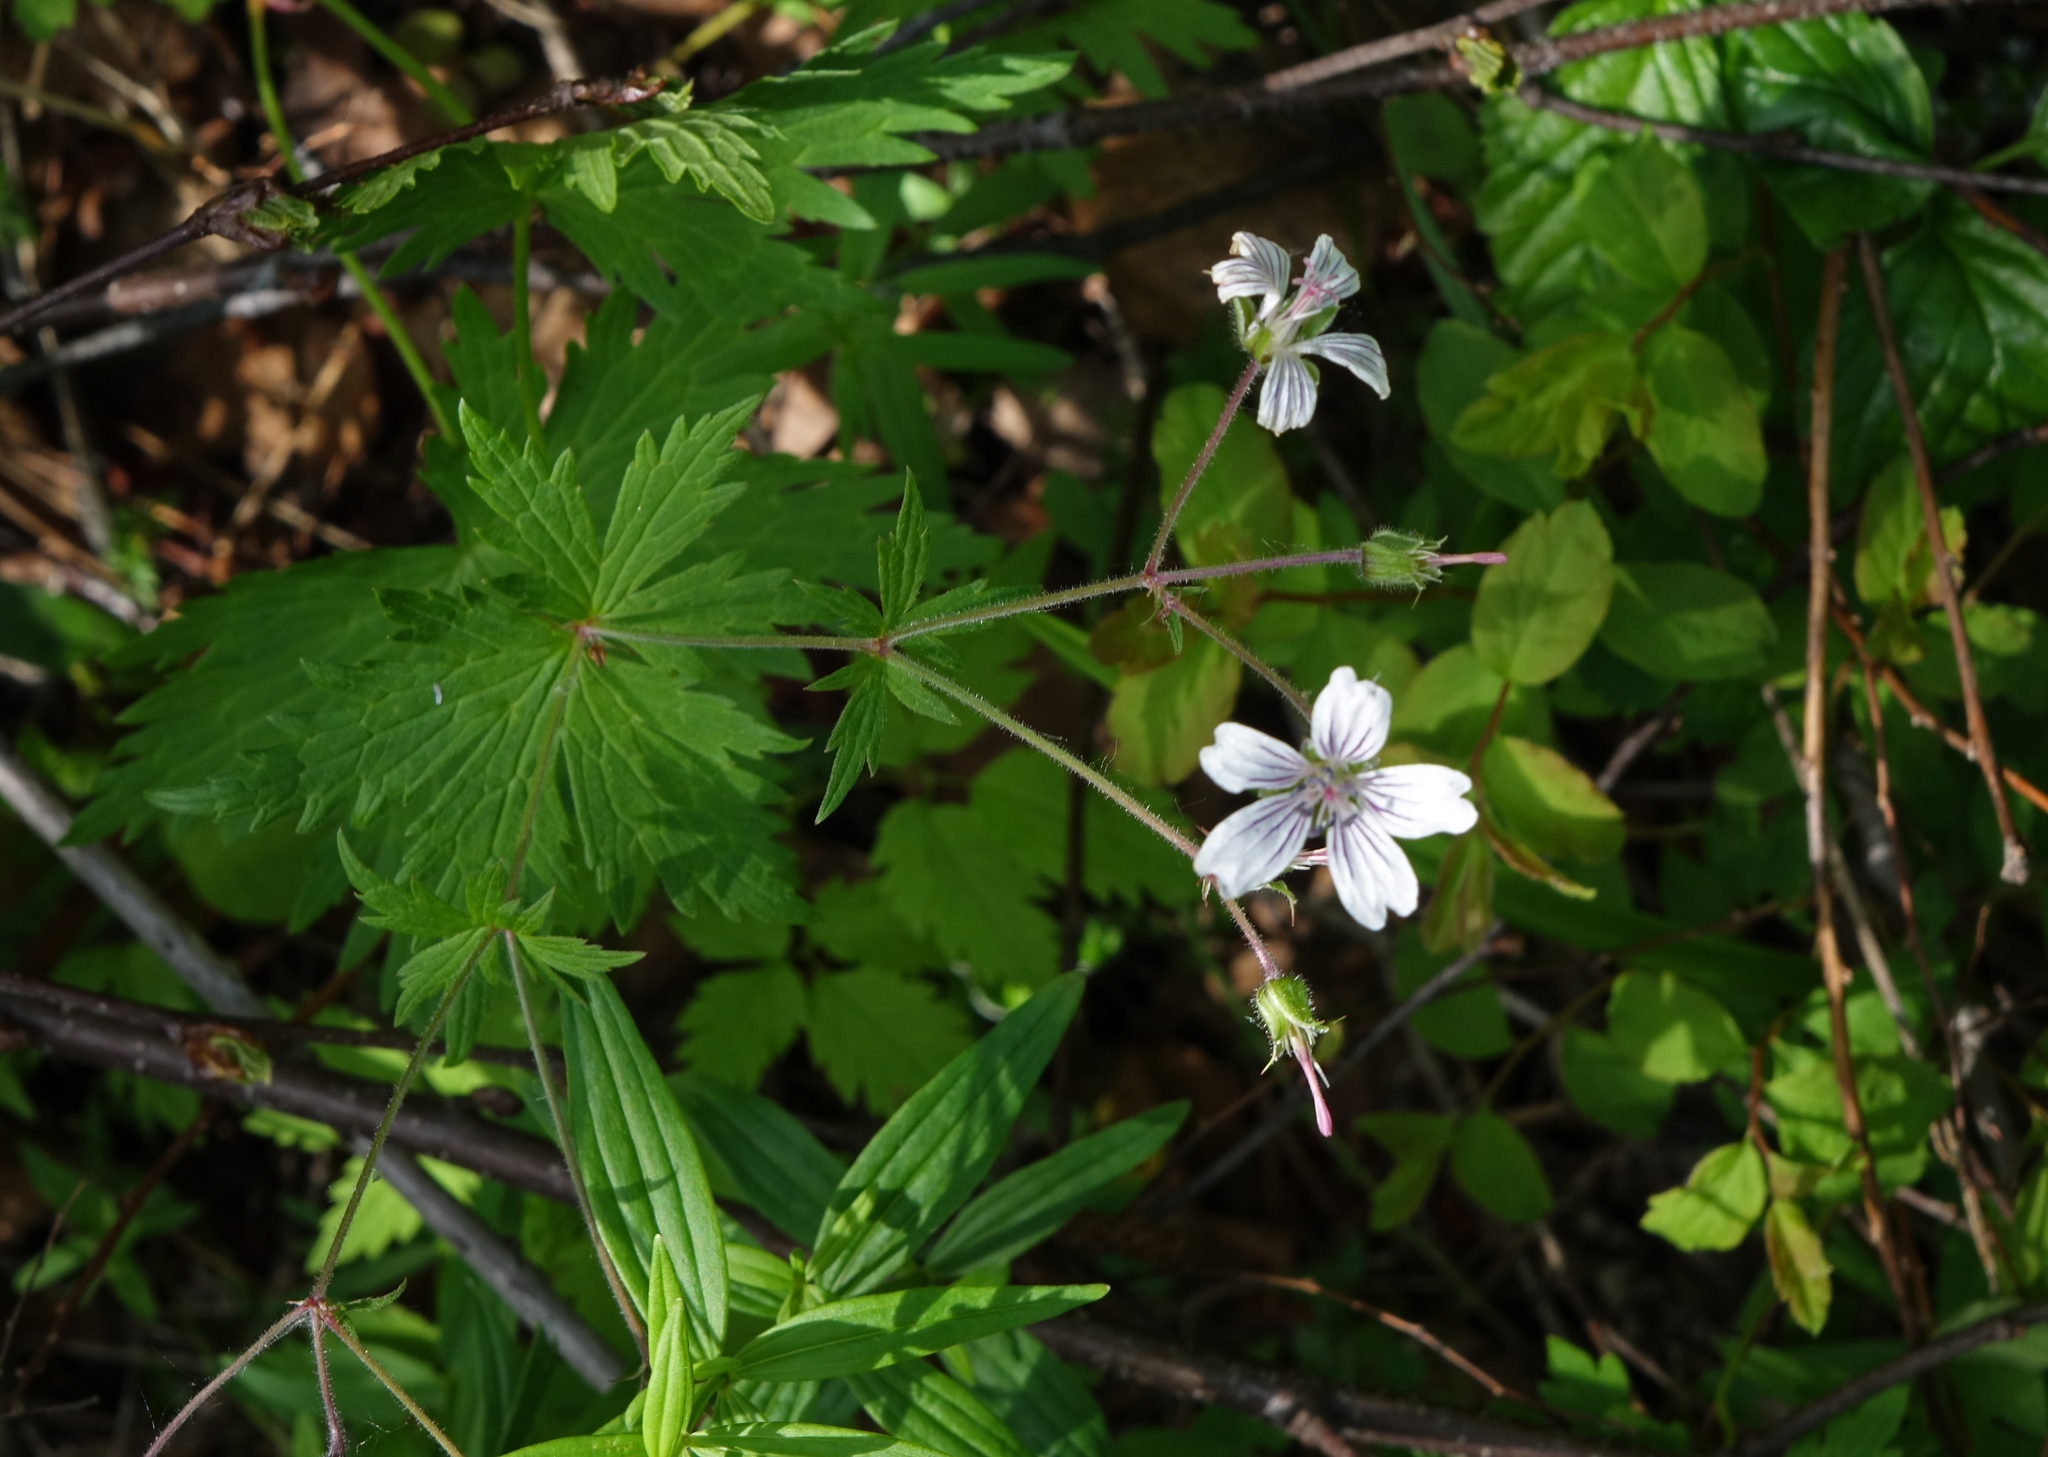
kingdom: Plantae
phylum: Tracheophyta
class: Magnoliopsida
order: Geraniales
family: Geraniaceae
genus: Geranium
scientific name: Geranium pseudosibiricum
